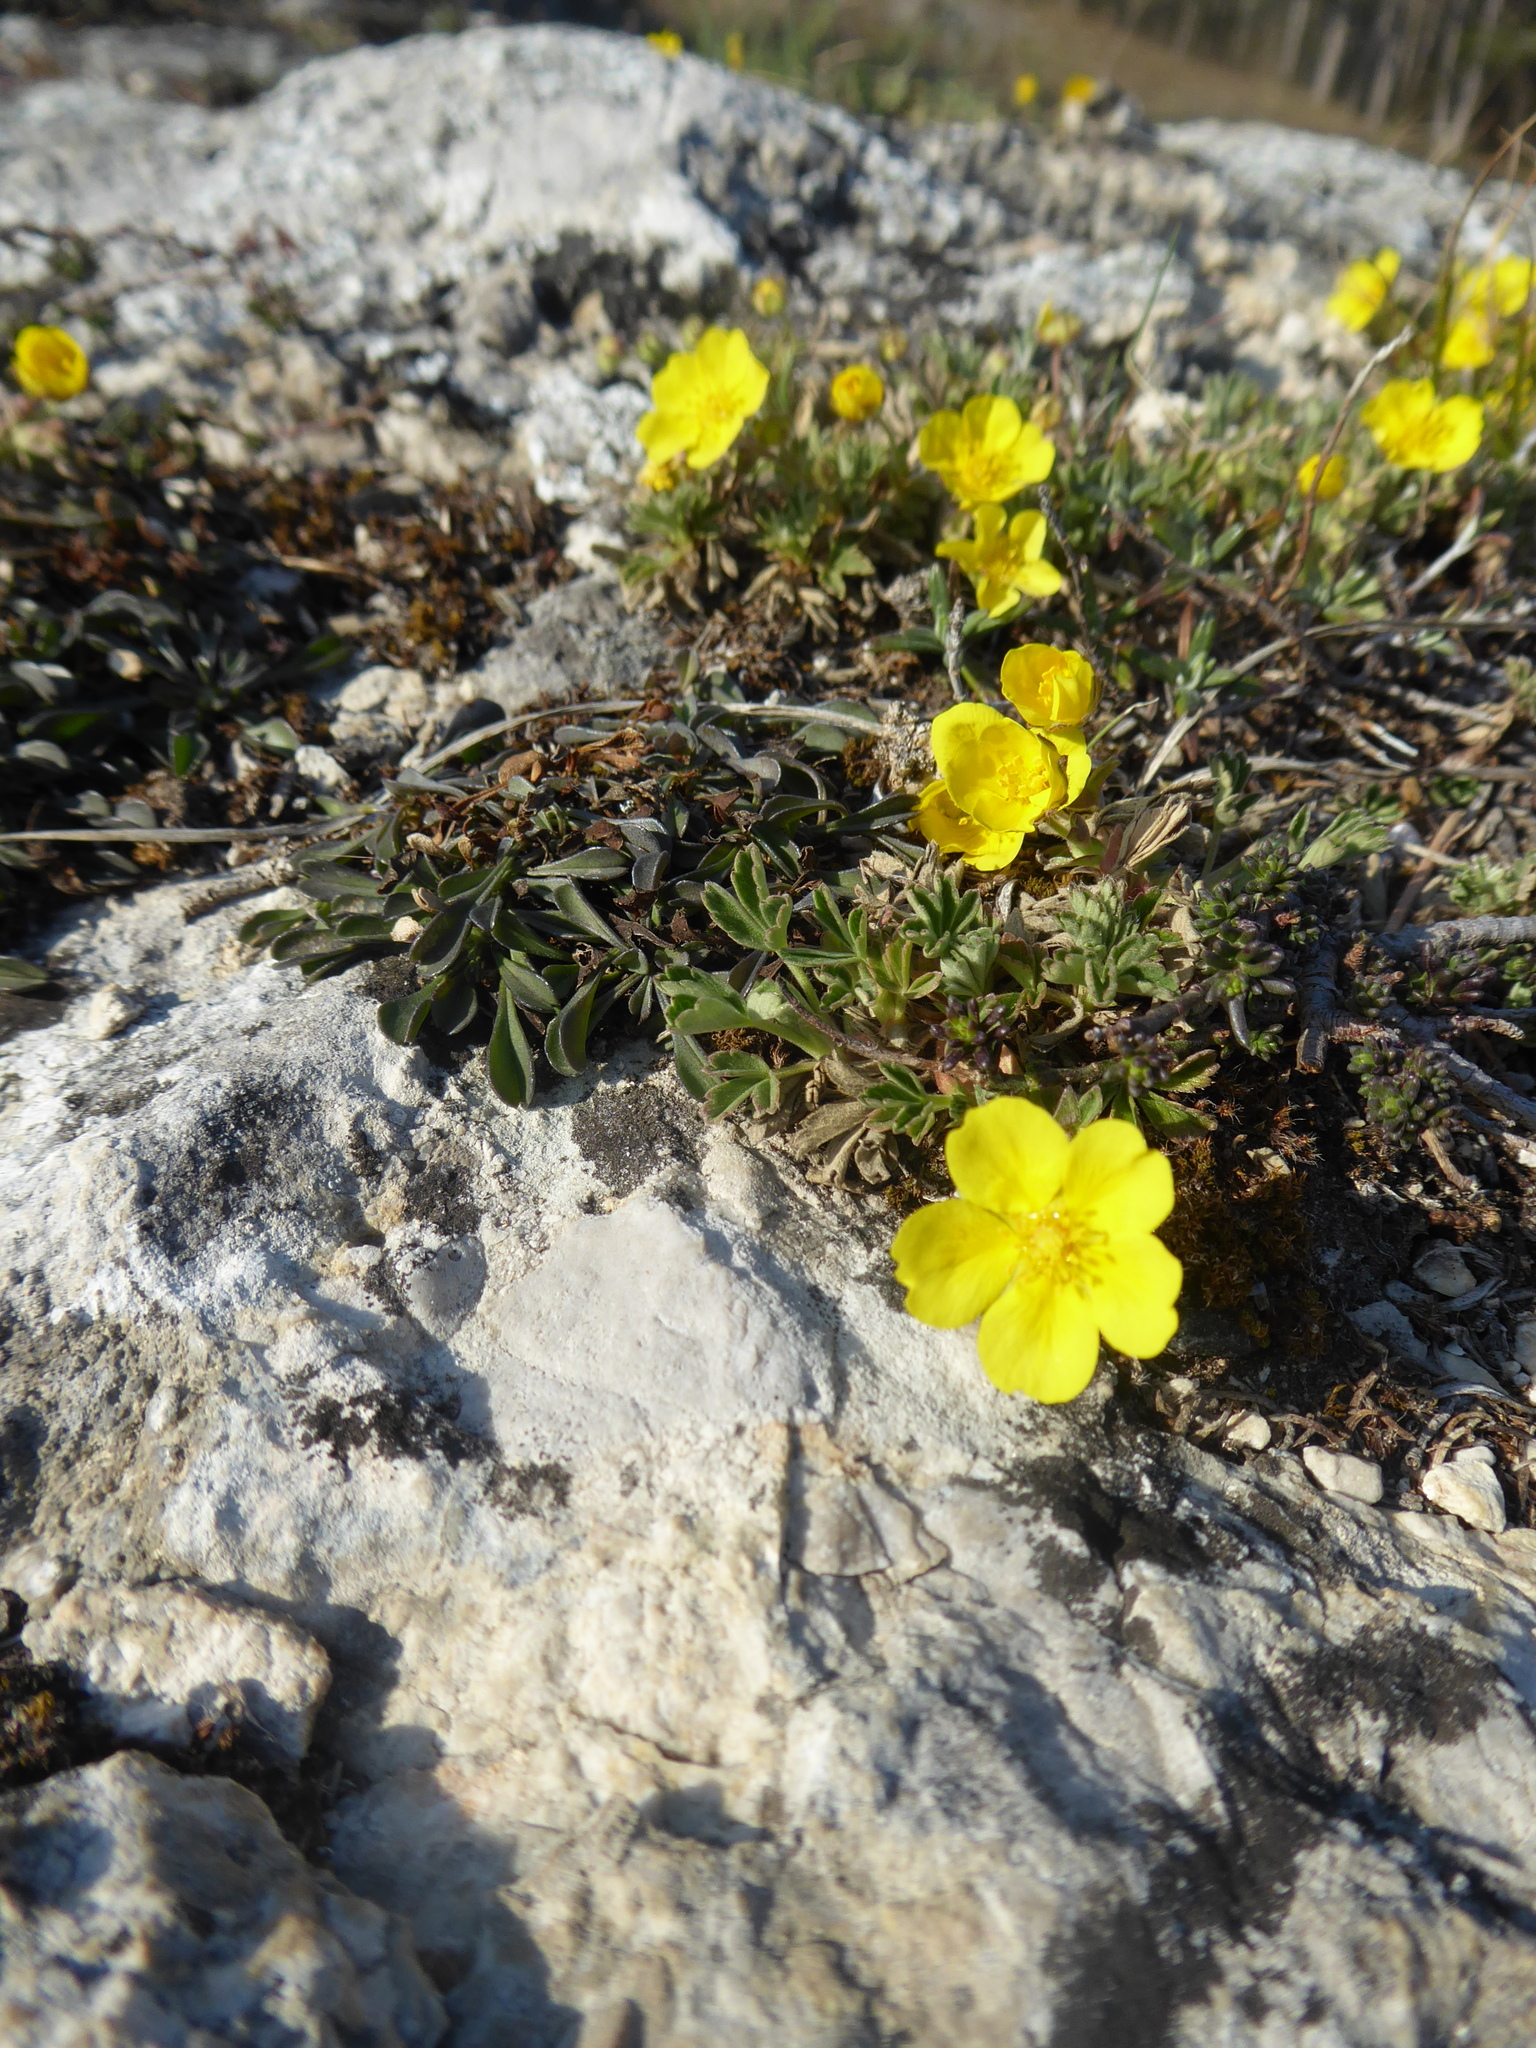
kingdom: Plantae
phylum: Tracheophyta
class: Magnoliopsida
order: Rosales
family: Rosaceae
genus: Potentilla
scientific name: Potentilla incana
